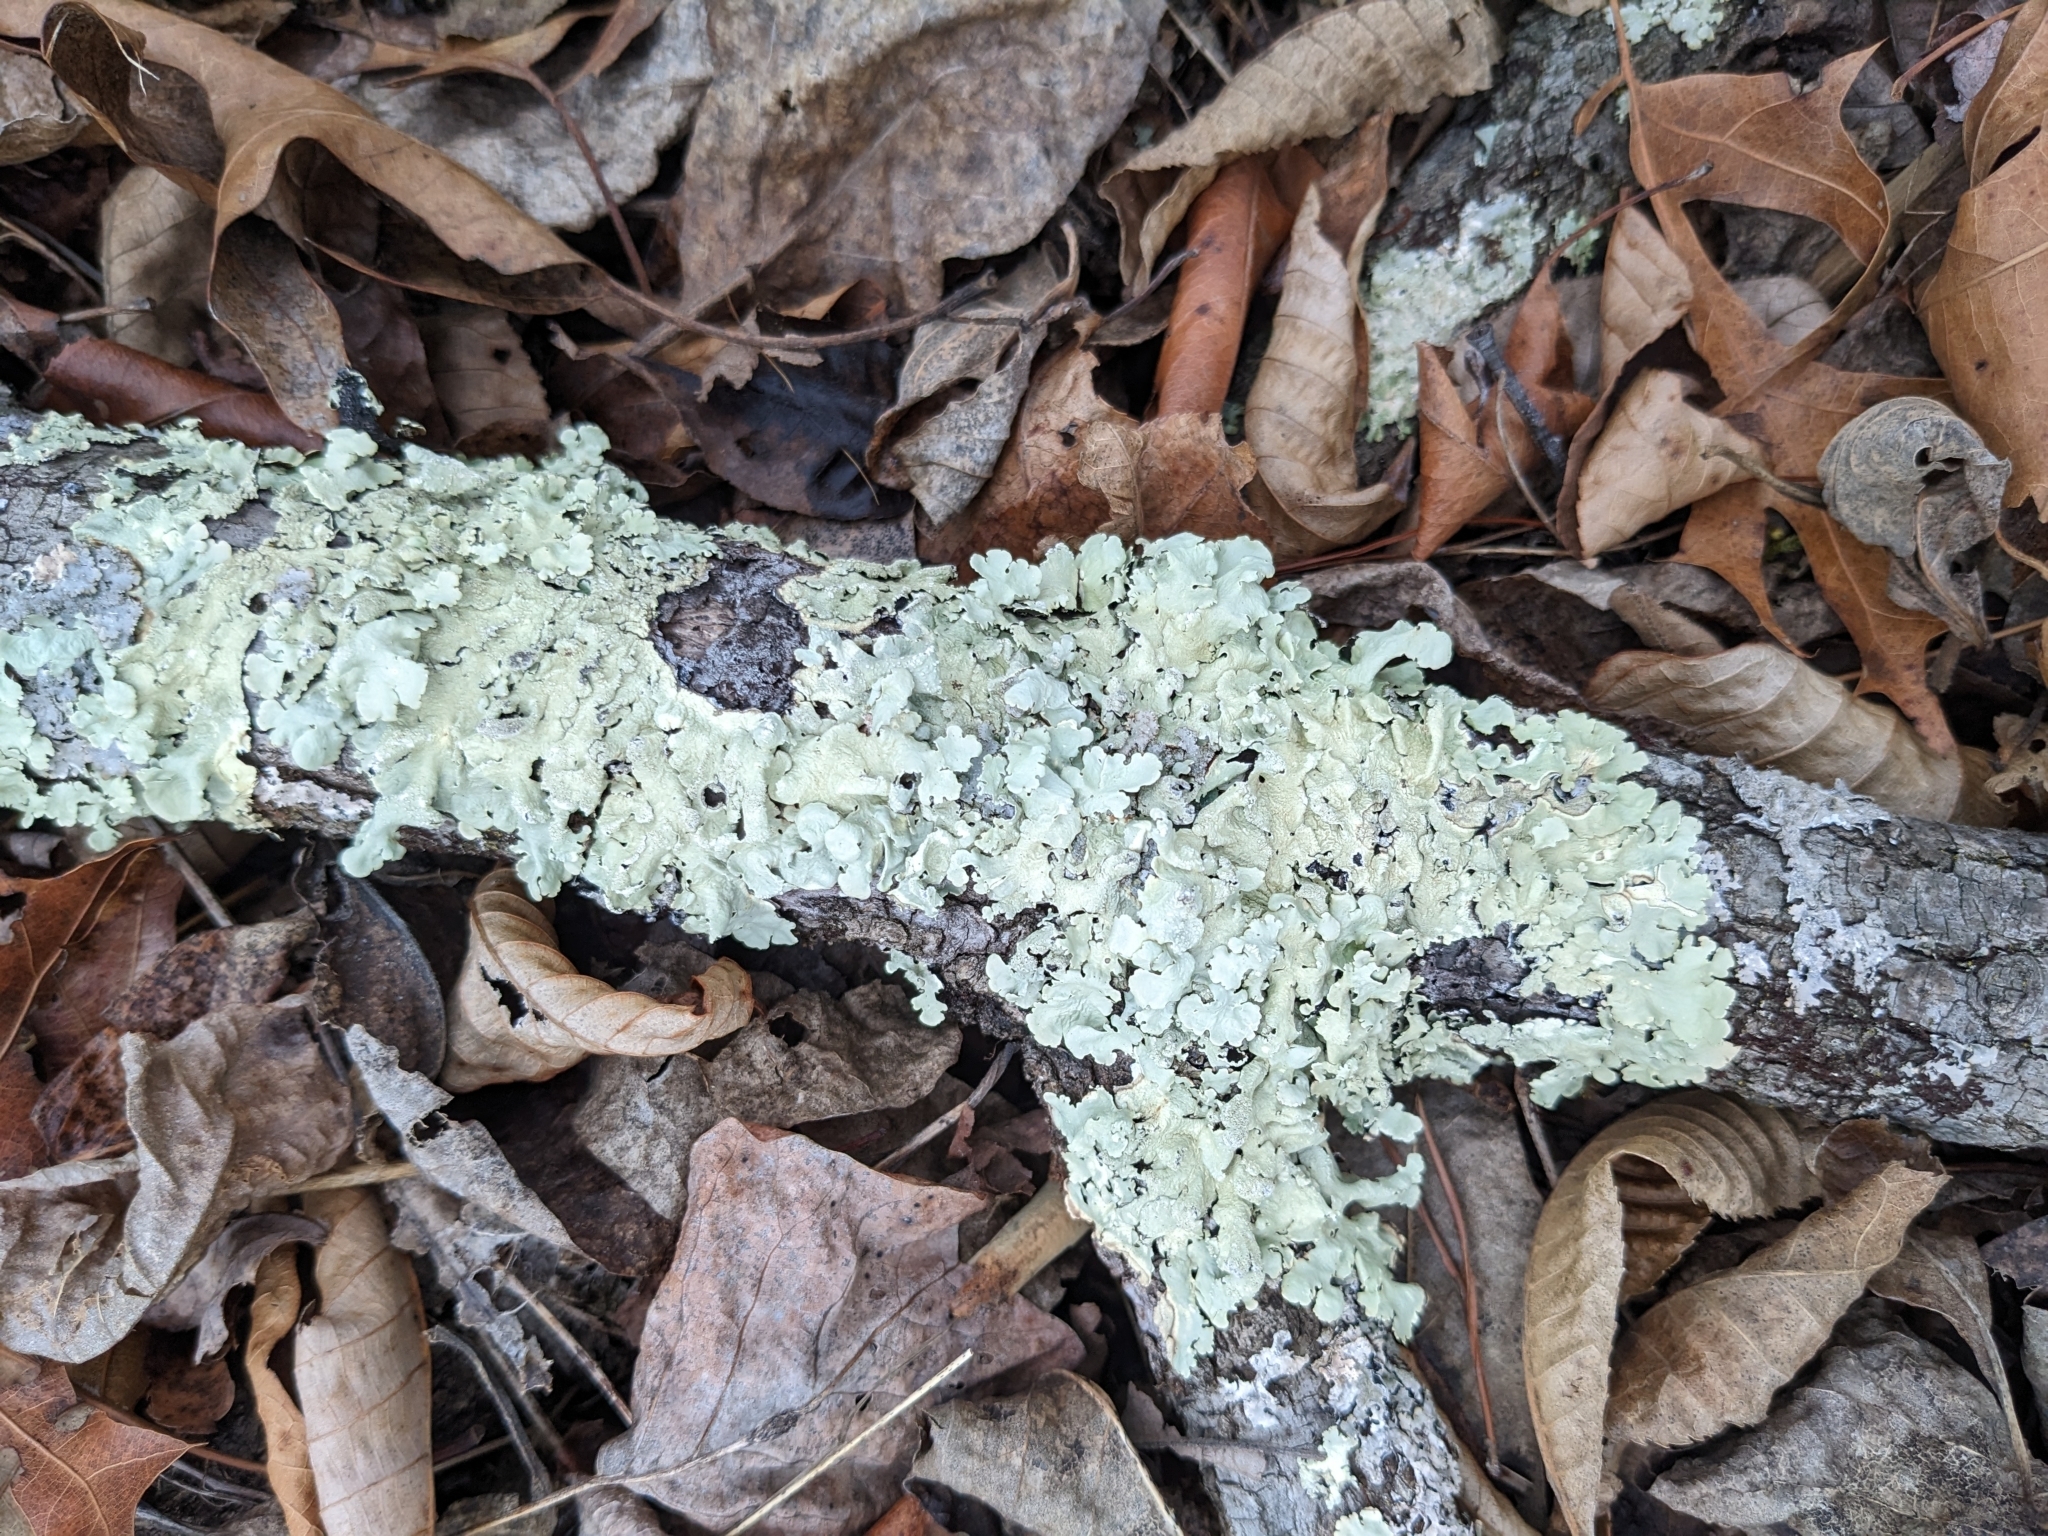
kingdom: Fungi
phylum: Ascomycota
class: Lecanoromycetes
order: Lecanorales
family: Parmeliaceae
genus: Flavoparmelia
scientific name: Flavoparmelia caperata
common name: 40-mile per hour lichen
